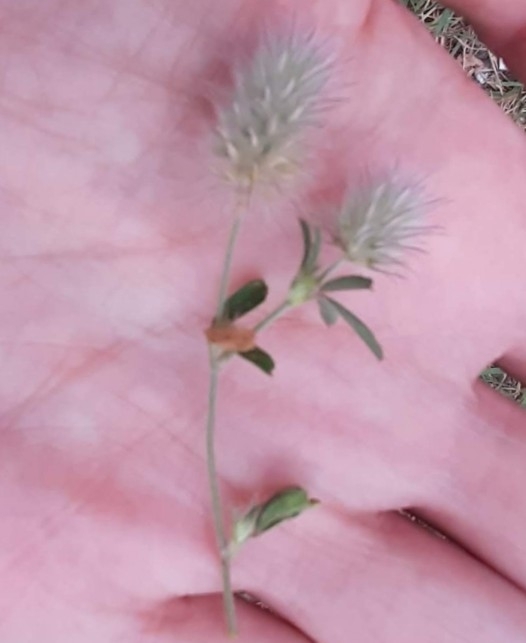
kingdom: Plantae
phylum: Tracheophyta
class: Magnoliopsida
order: Fabales
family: Fabaceae
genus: Trifolium
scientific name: Trifolium arvense
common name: Hare's-foot clover
